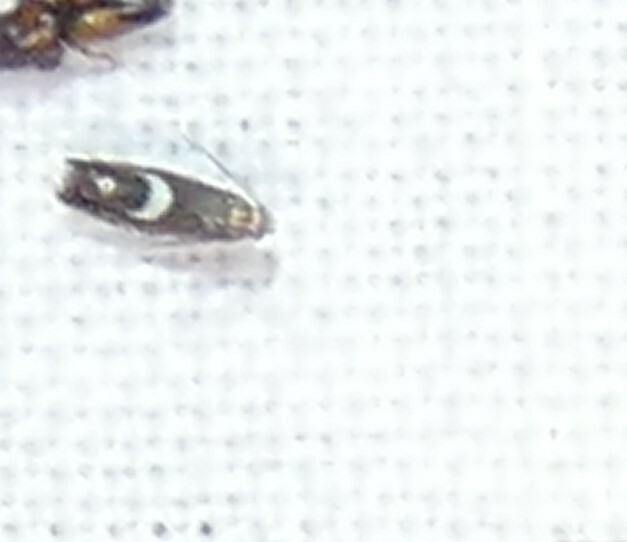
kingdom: Animalia
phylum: Arthropoda
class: Insecta
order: Lepidoptera
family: Glyphipterigidae
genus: Glyphipterix
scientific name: Glyphipterix Diploschizia impigritella
